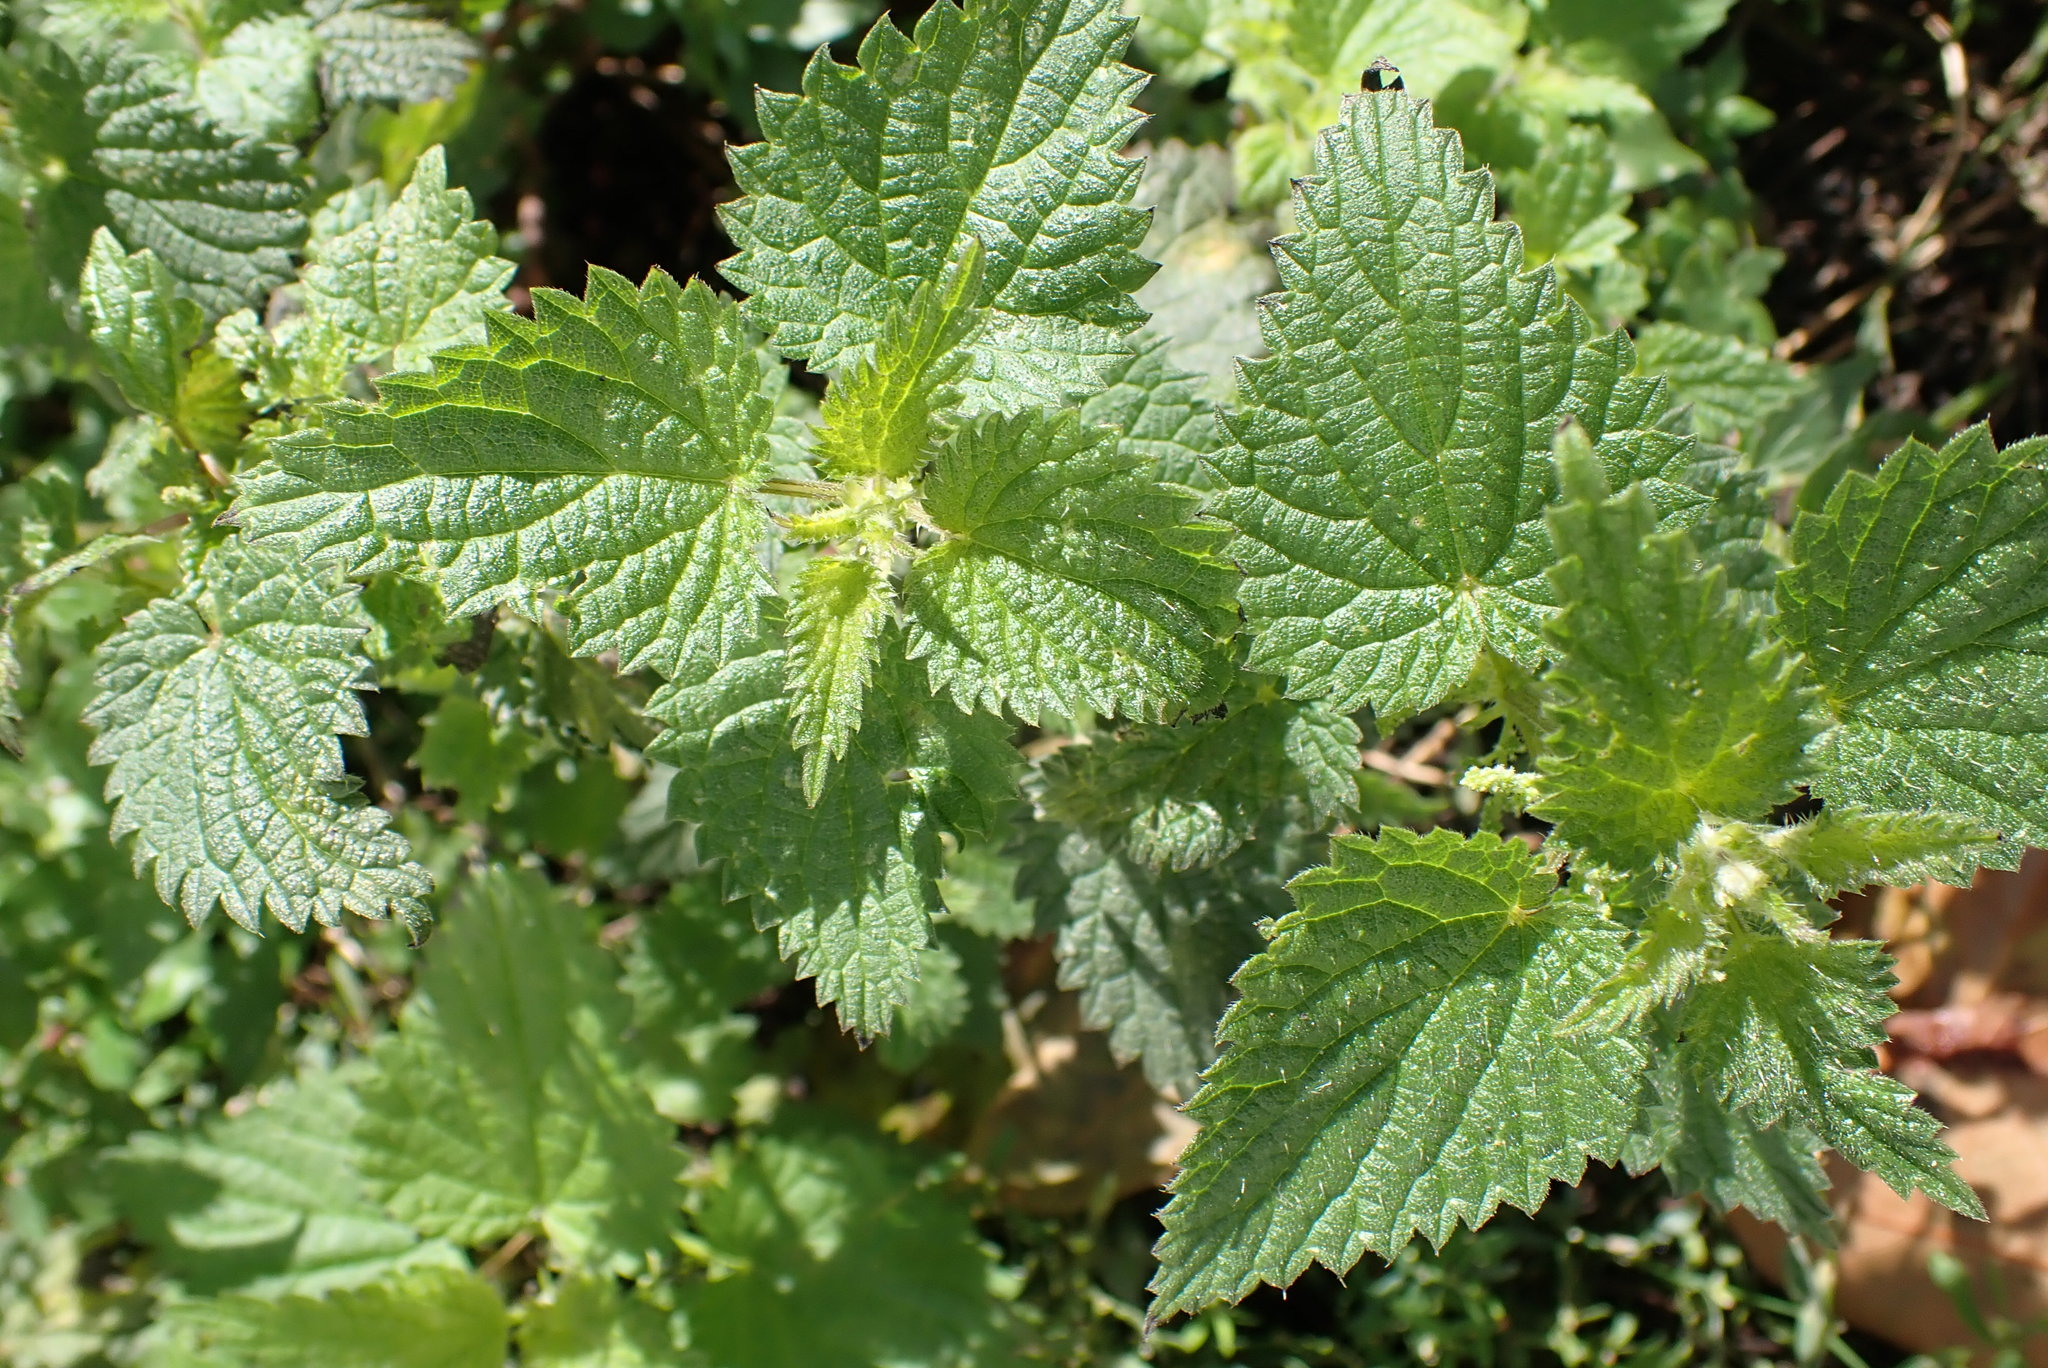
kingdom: Plantae
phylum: Tracheophyta
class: Magnoliopsida
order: Rosales
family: Urticaceae
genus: Urtica
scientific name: Urtica dioica
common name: Common nettle
